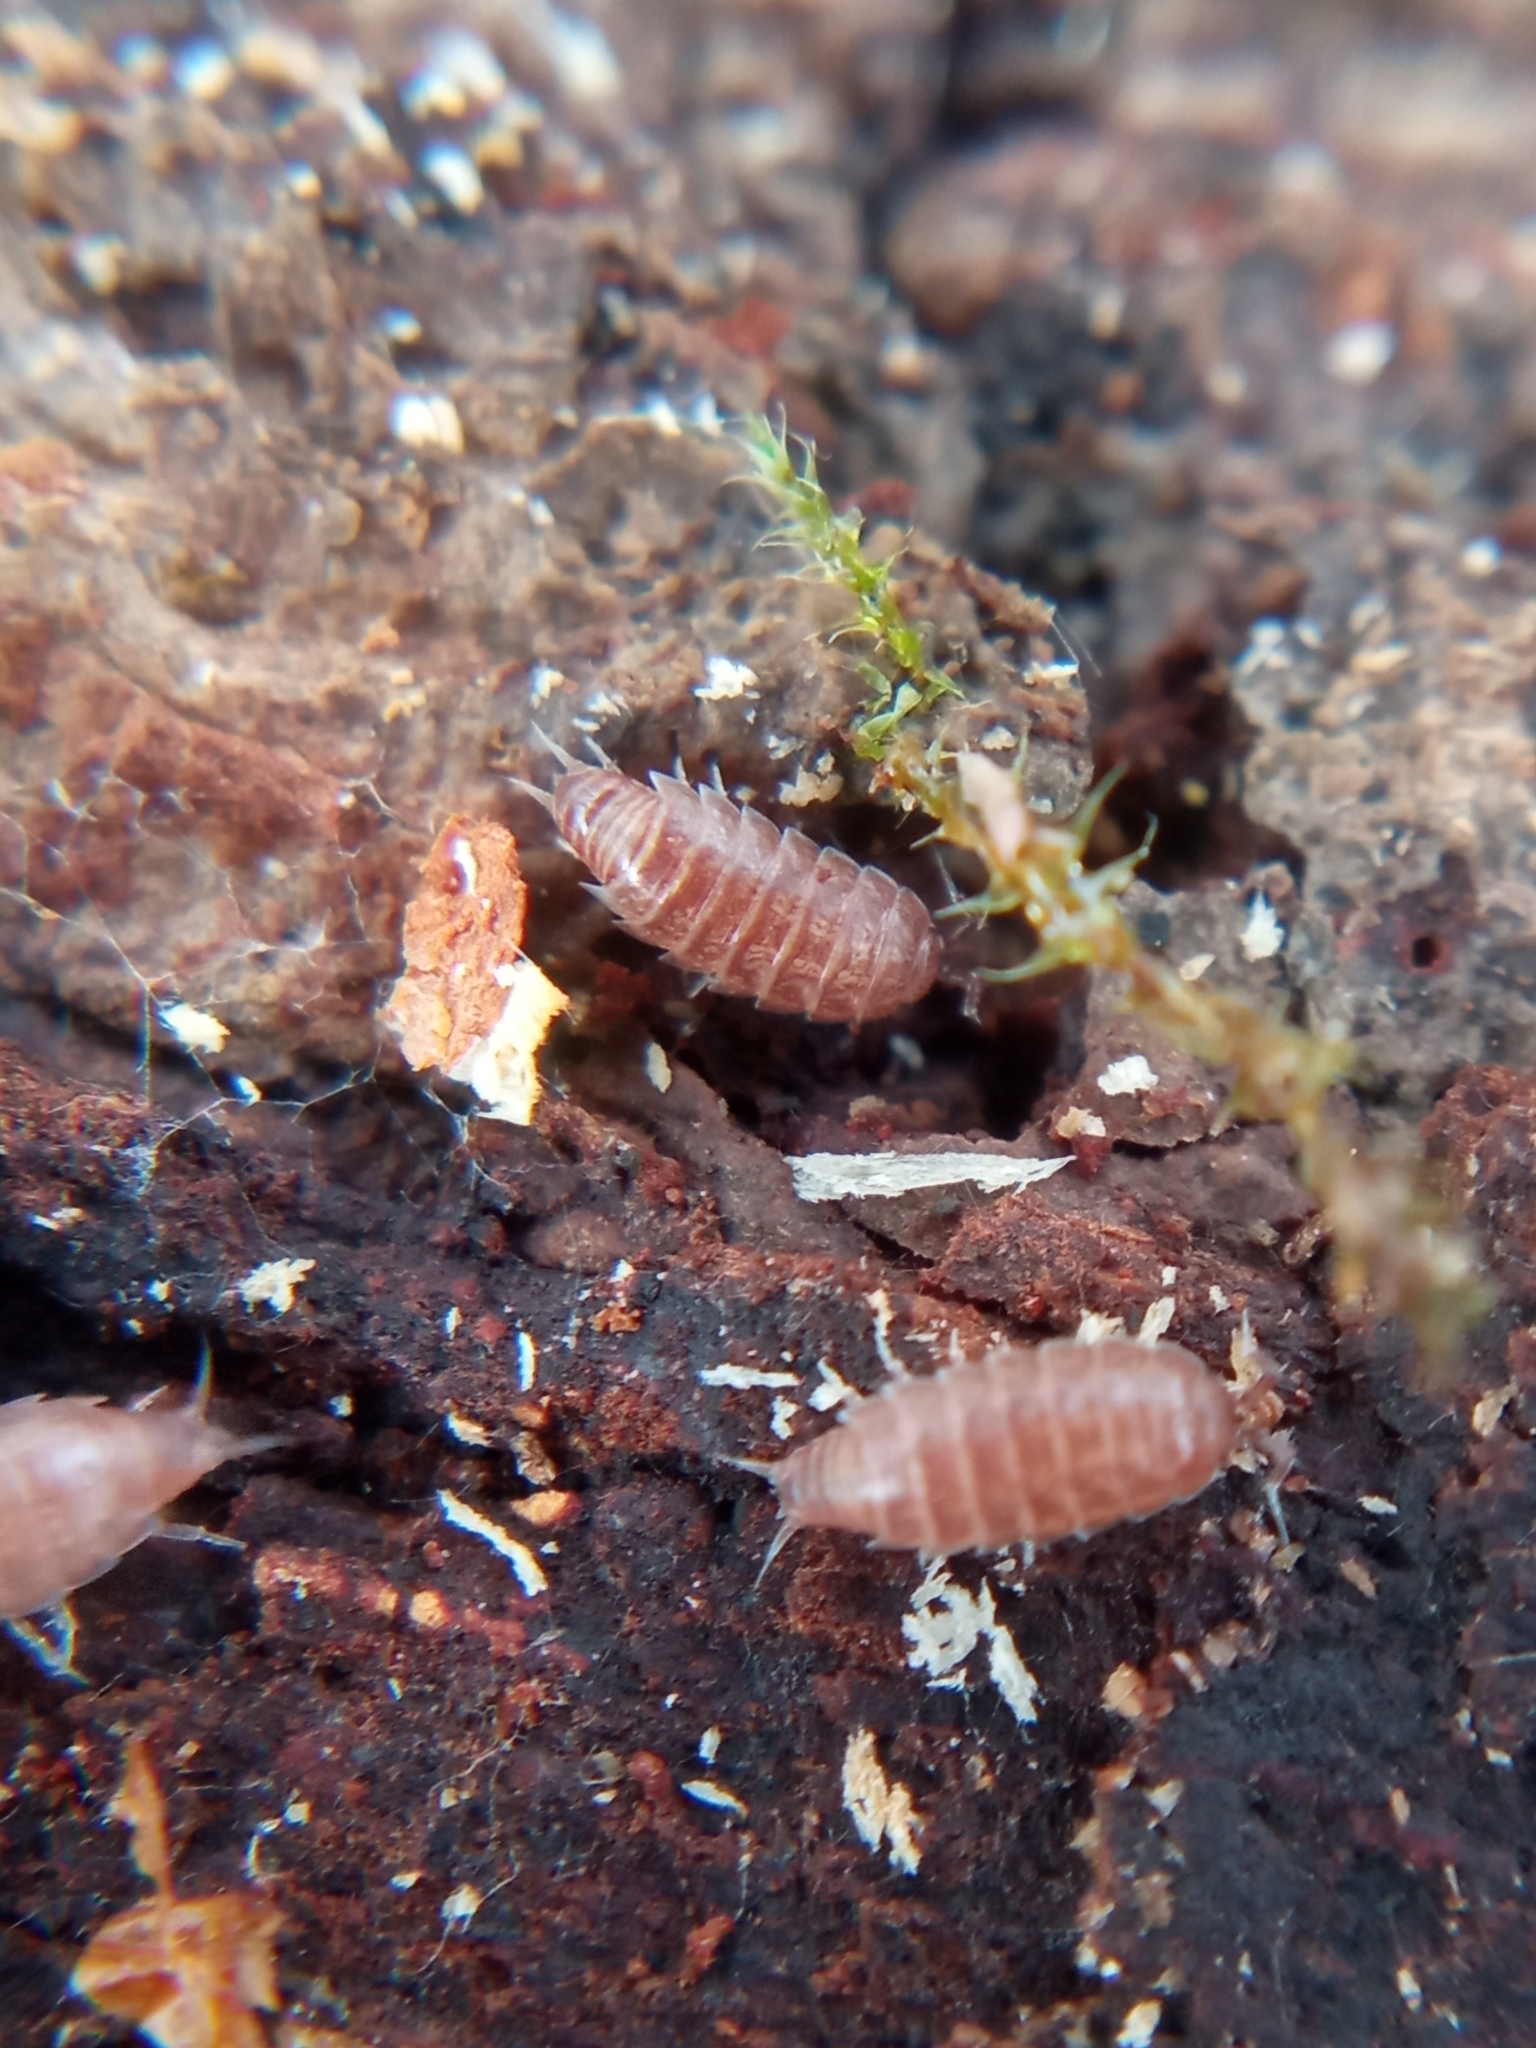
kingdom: Animalia
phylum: Arthropoda
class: Malacostraca
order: Isopoda
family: Trichoniscidae
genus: Trichoniscus
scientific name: Trichoniscus
